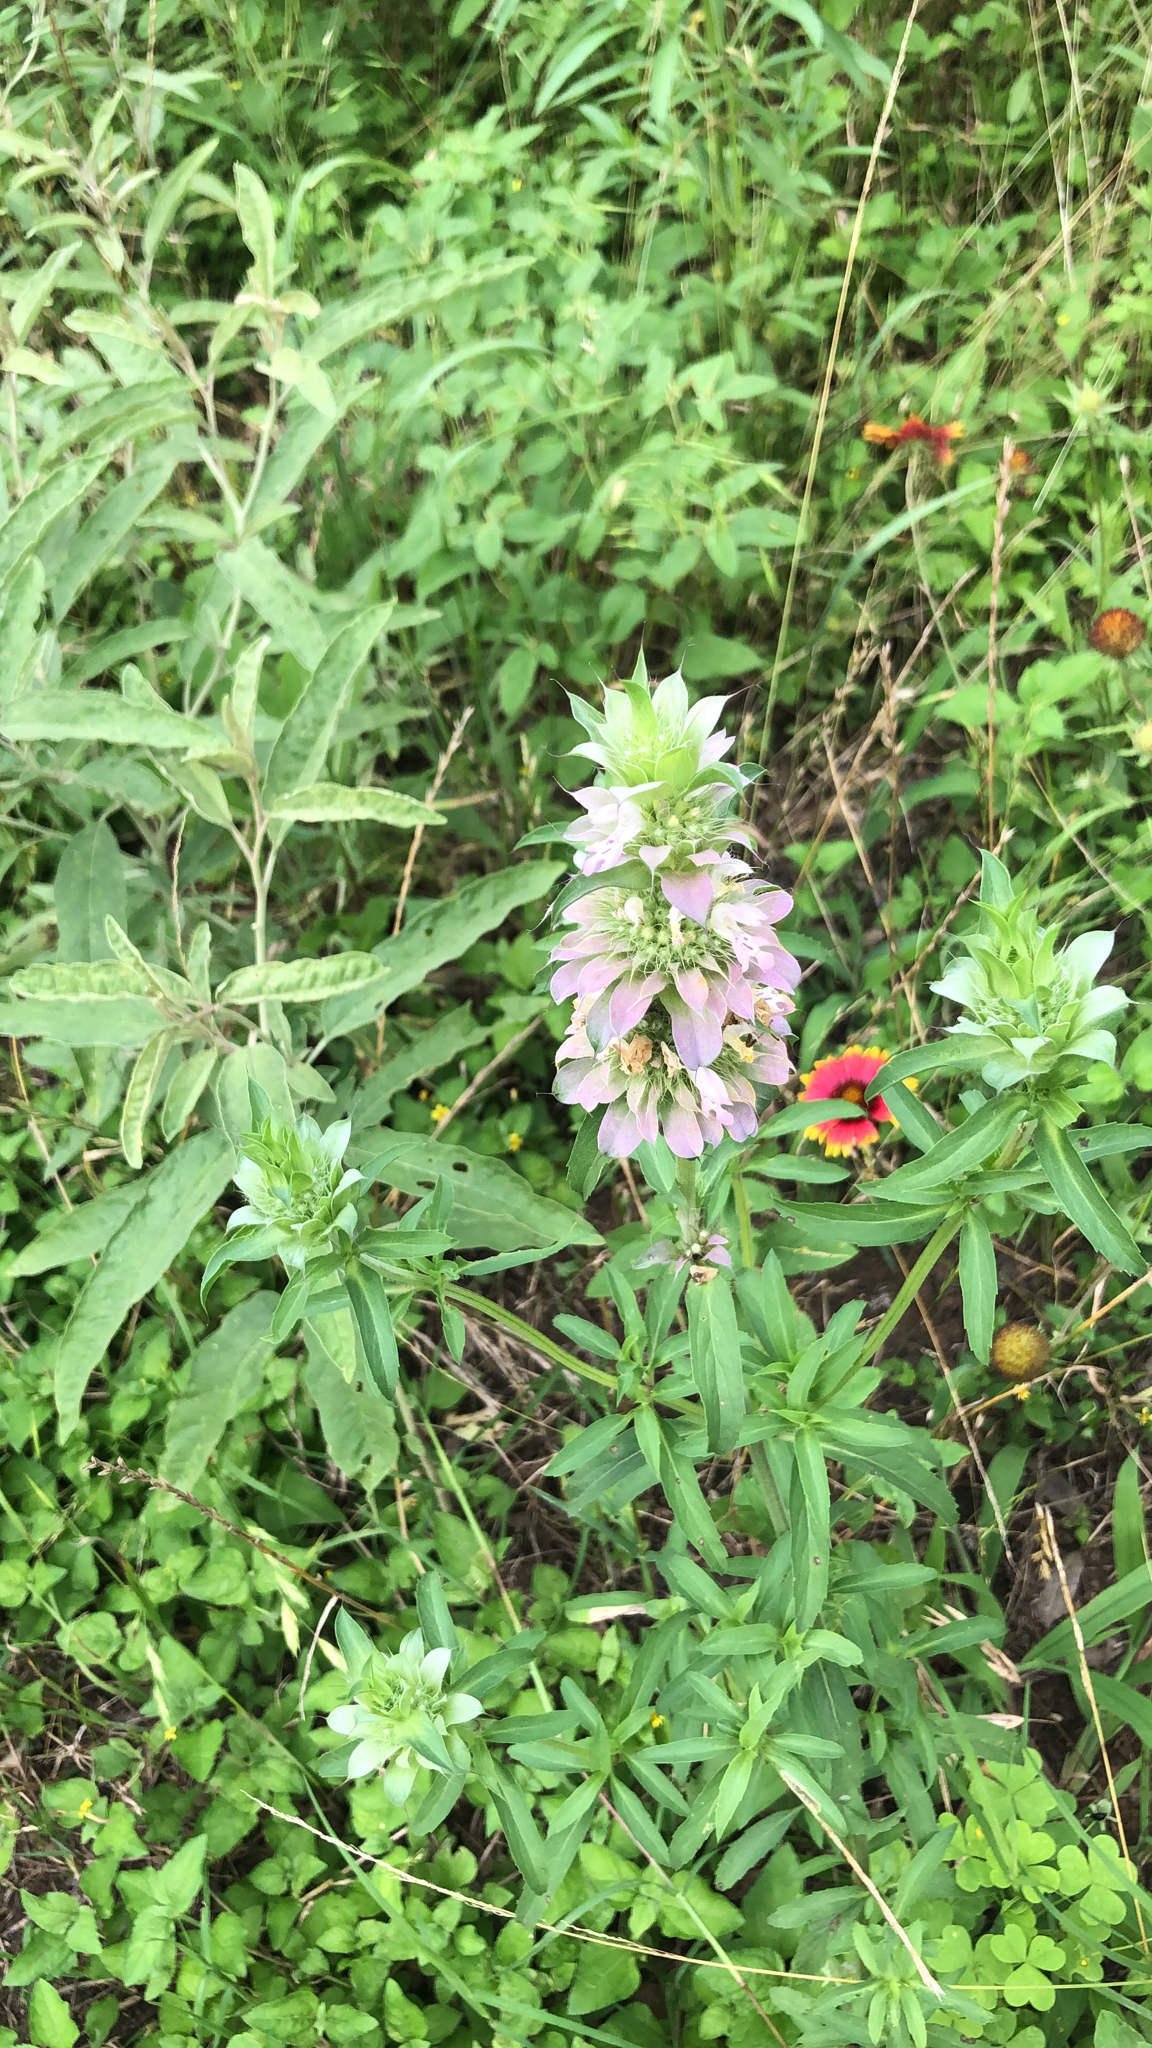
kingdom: Plantae
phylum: Tracheophyta
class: Magnoliopsida
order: Lamiales
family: Lamiaceae
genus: Monarda
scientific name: Monarda citriodora
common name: Lemon beebalm
